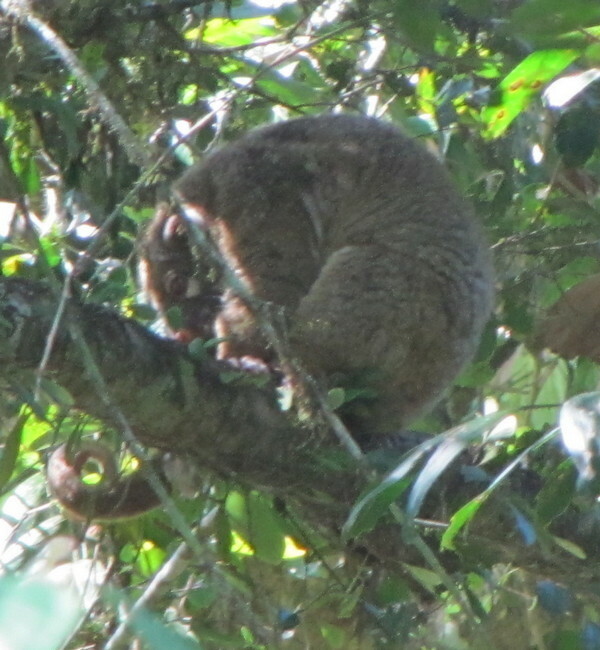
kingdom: Animalia
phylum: Chordata
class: Mammalia
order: Diprotodontia
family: Pseudocheiridae
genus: Pseudochirops
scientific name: Pseudochirops archeri
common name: Green ringtail
